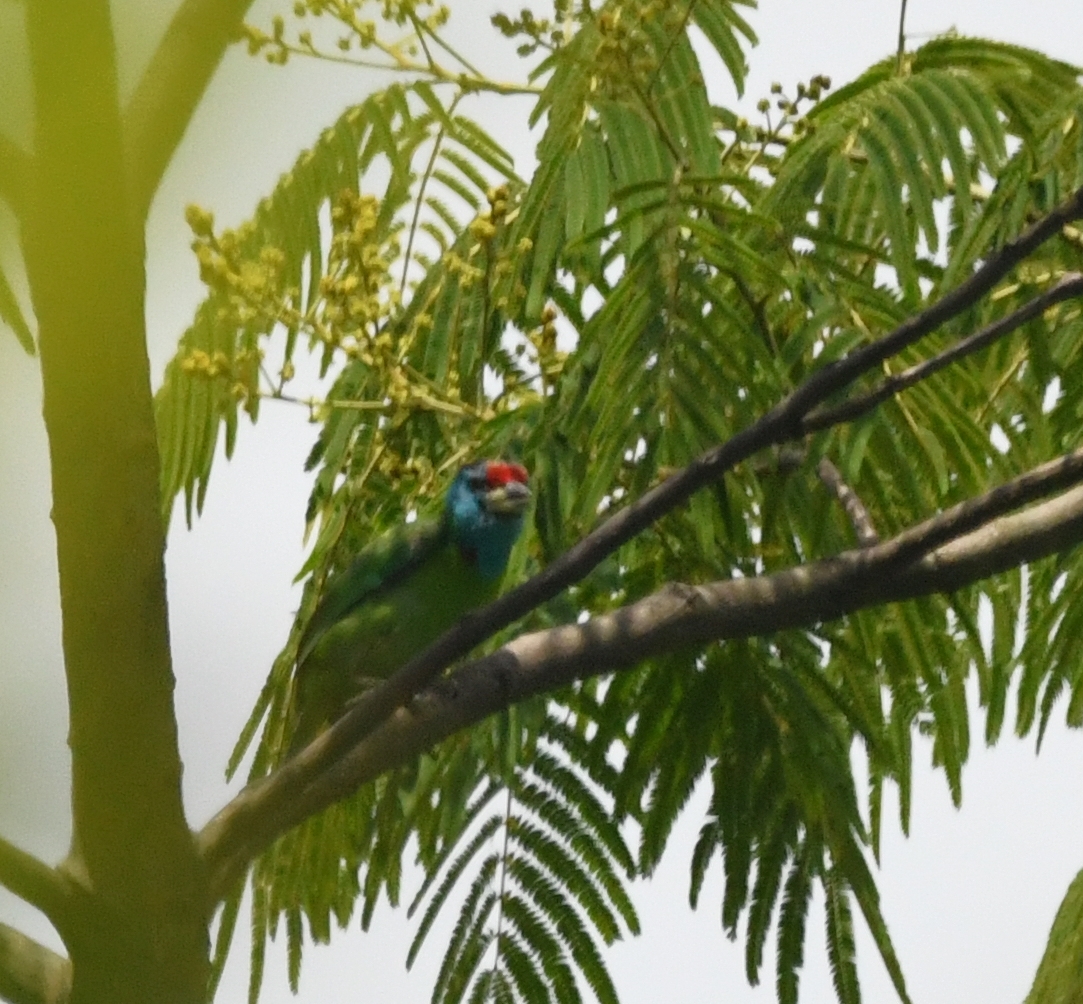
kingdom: Animalia
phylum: Chordata
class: Aves
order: Piciformes
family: Megalaimidae
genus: Psilopogon
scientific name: Psilopogon asiaticus
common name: Blue-throated barbet
